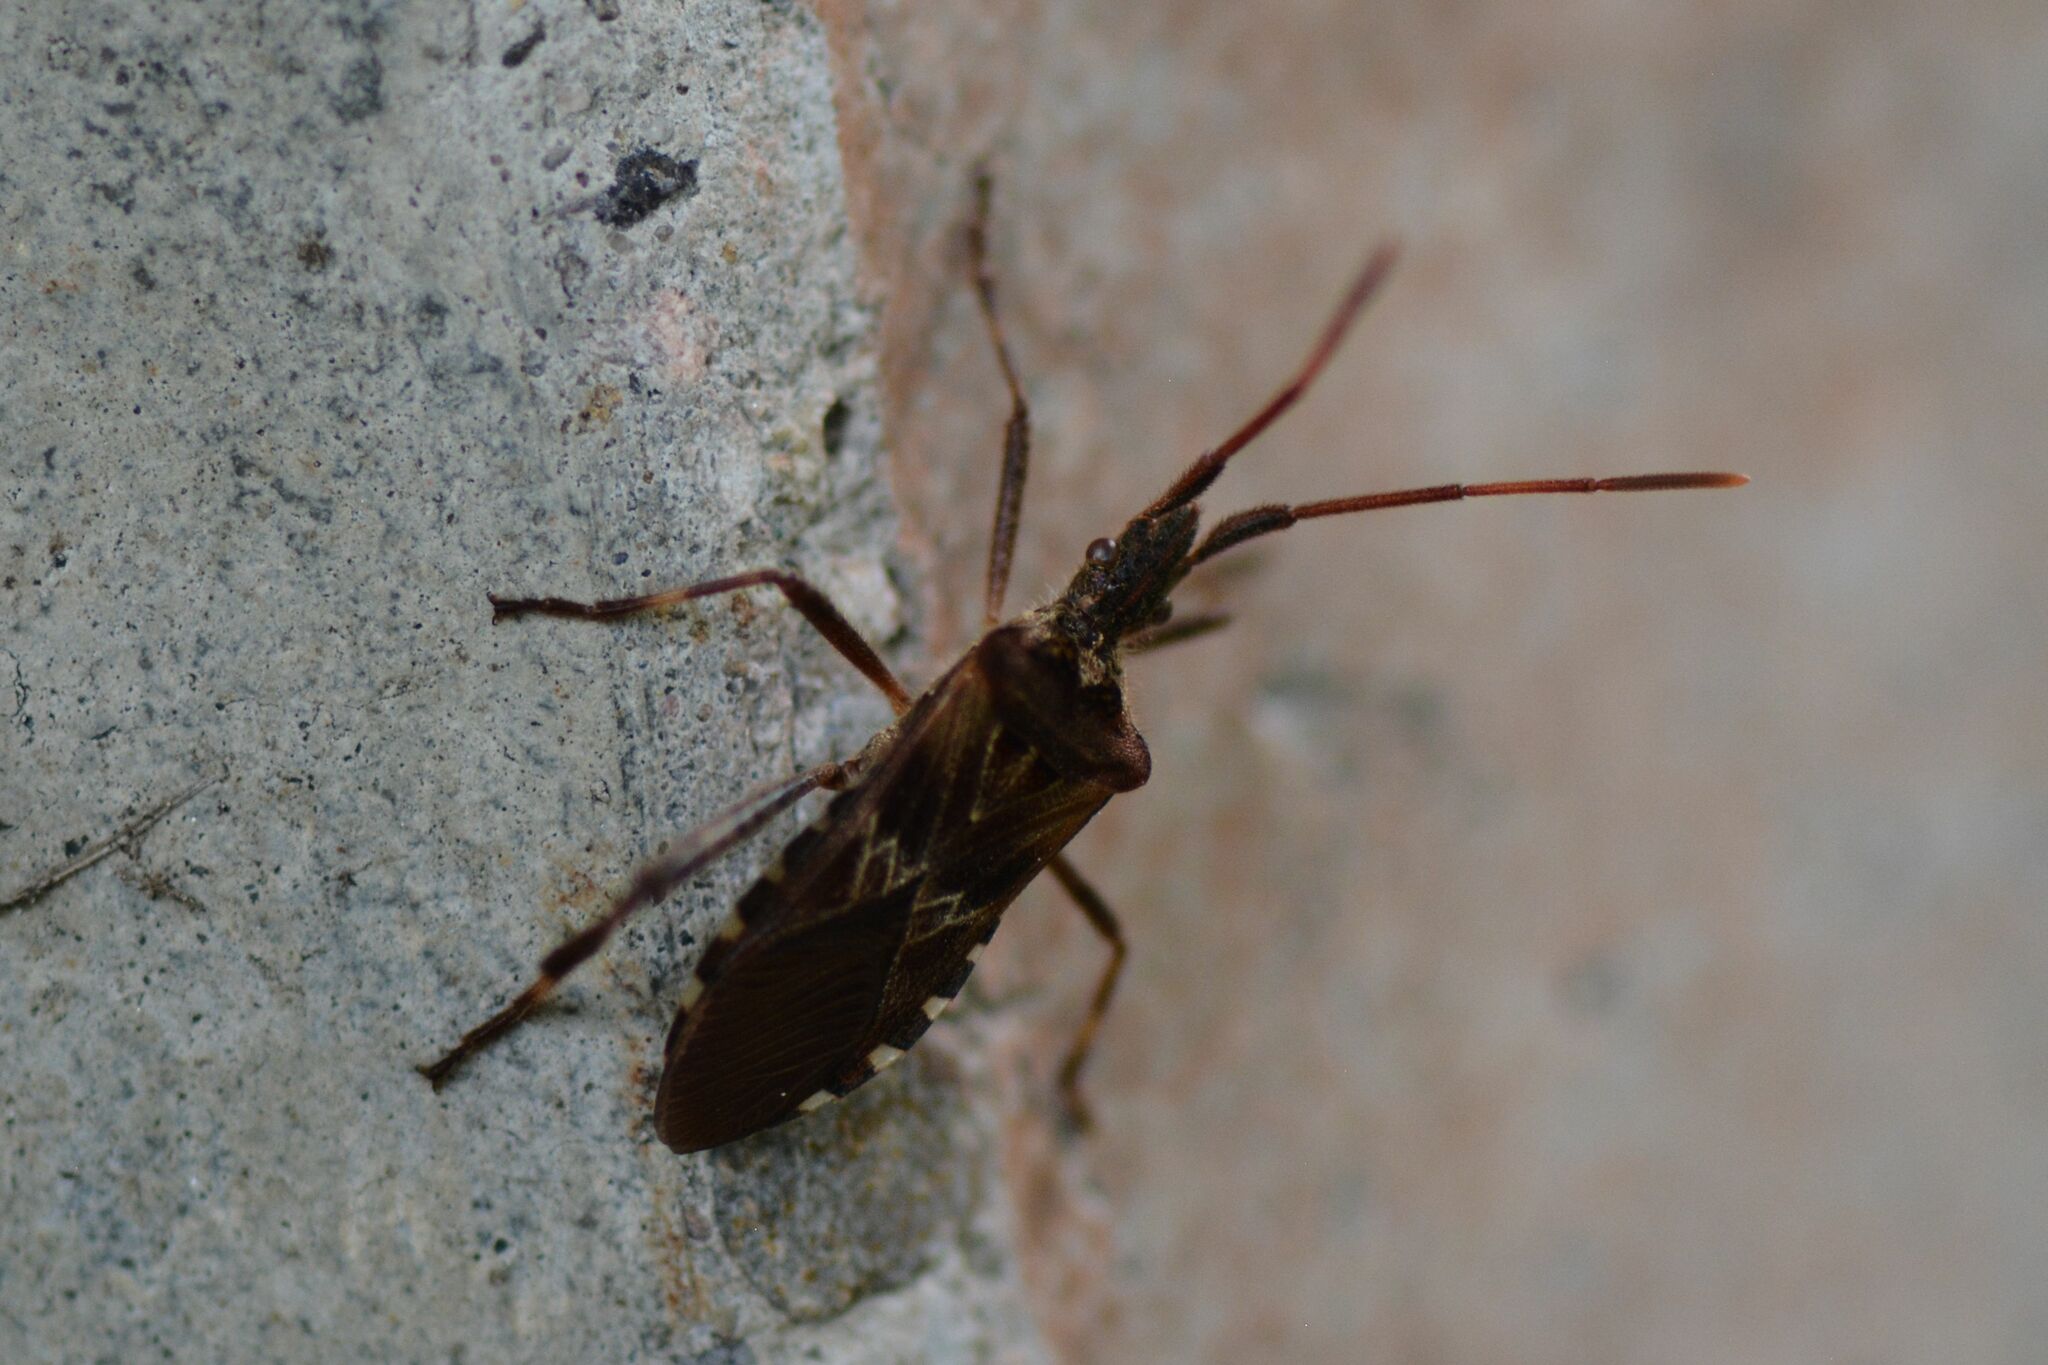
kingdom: Animalia
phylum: Arthropoda
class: Insecta
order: Hemiptera
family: Coreidae
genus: Leptoglossus
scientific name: Leptoglossus occidentalis
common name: Western conifer-seed bug
